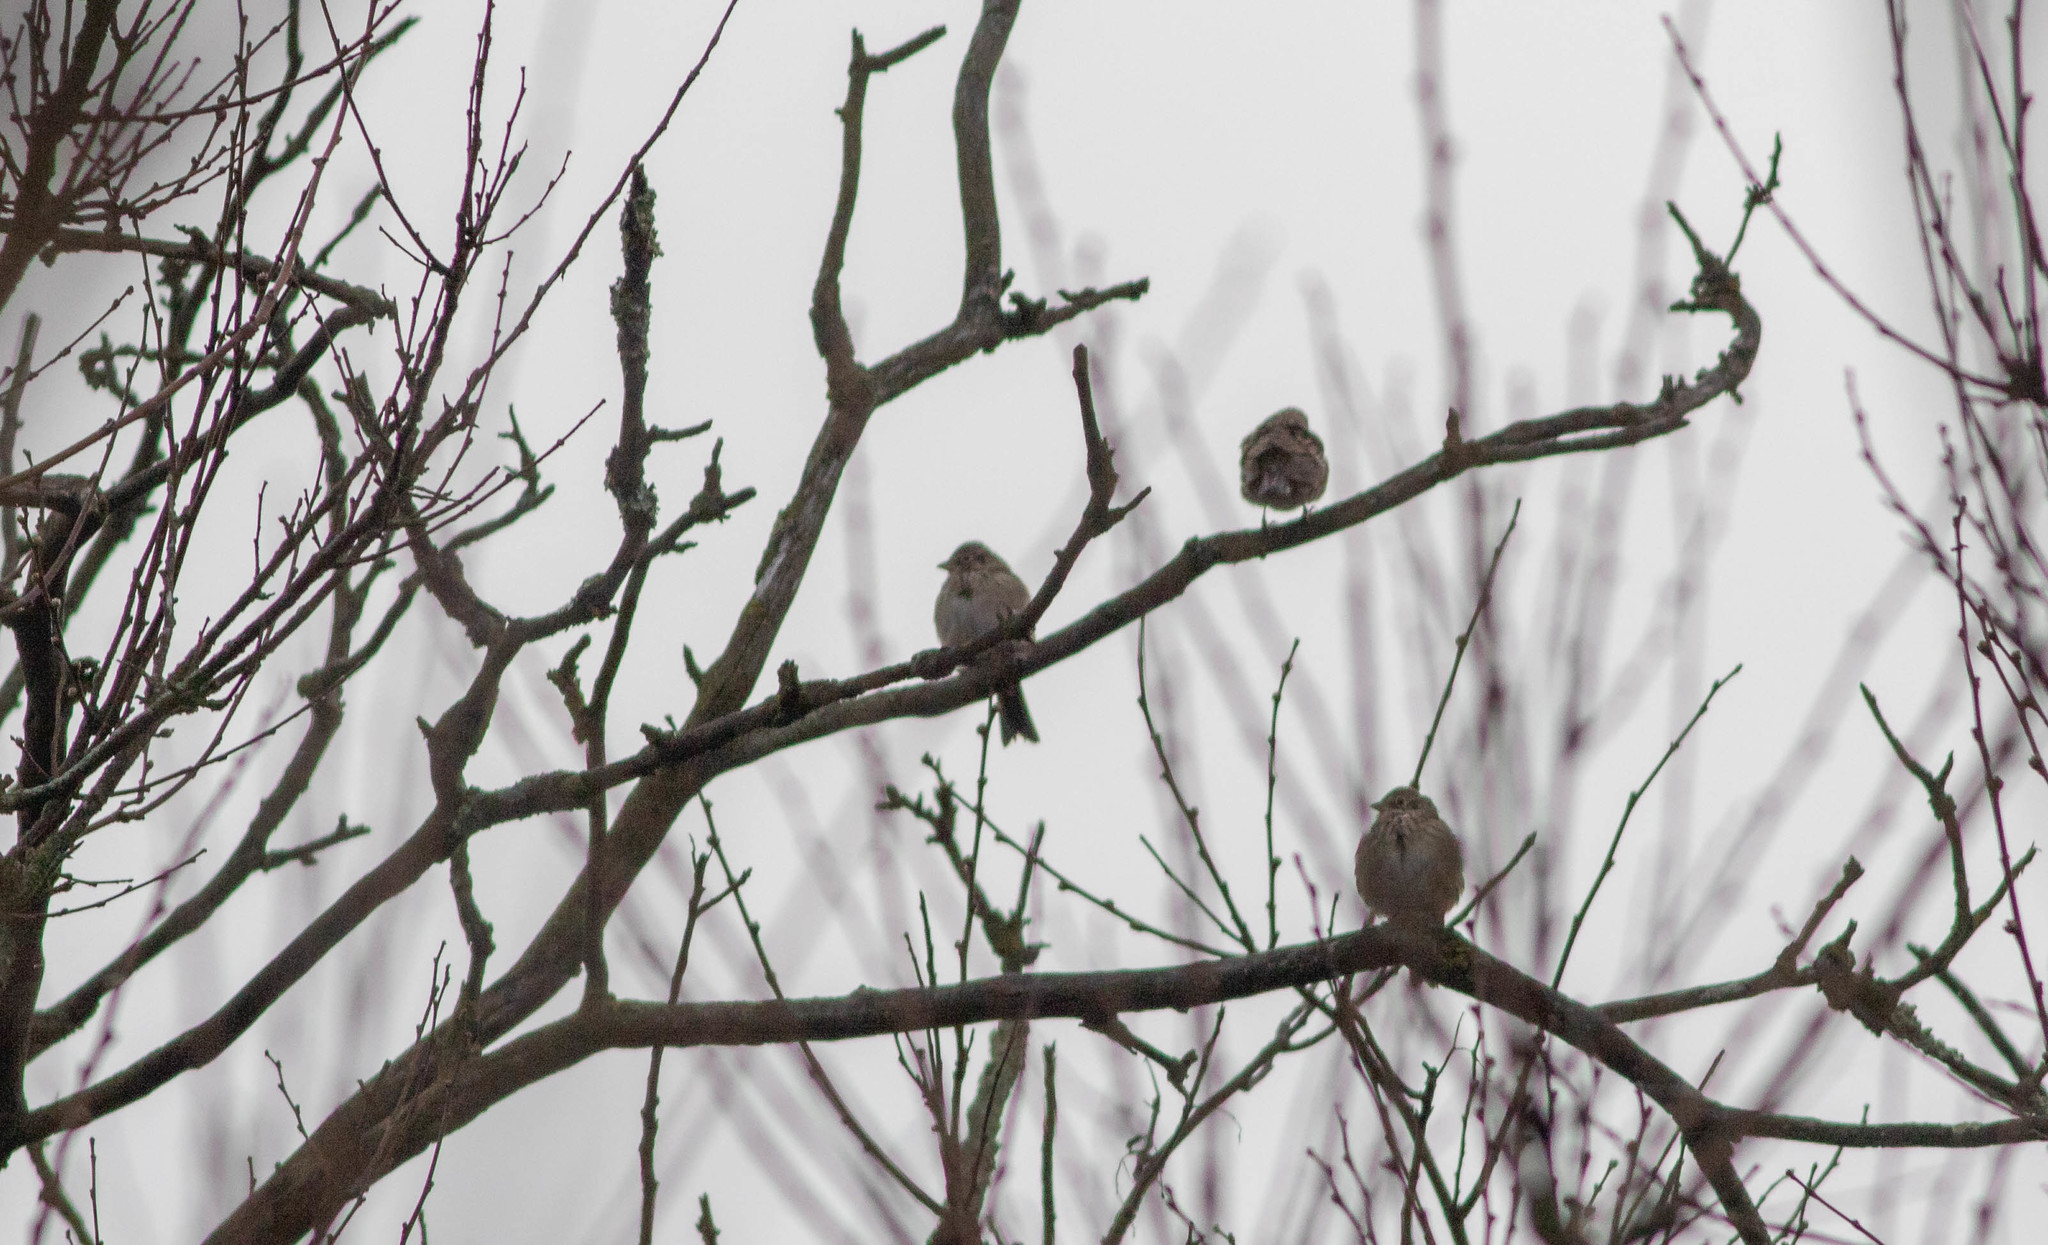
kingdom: Animalia
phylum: Chordata
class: Aves
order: Passeriformes
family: Passerellidae
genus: Pooecetes
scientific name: Pooecetes gramineus
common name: Vesper sparrow
